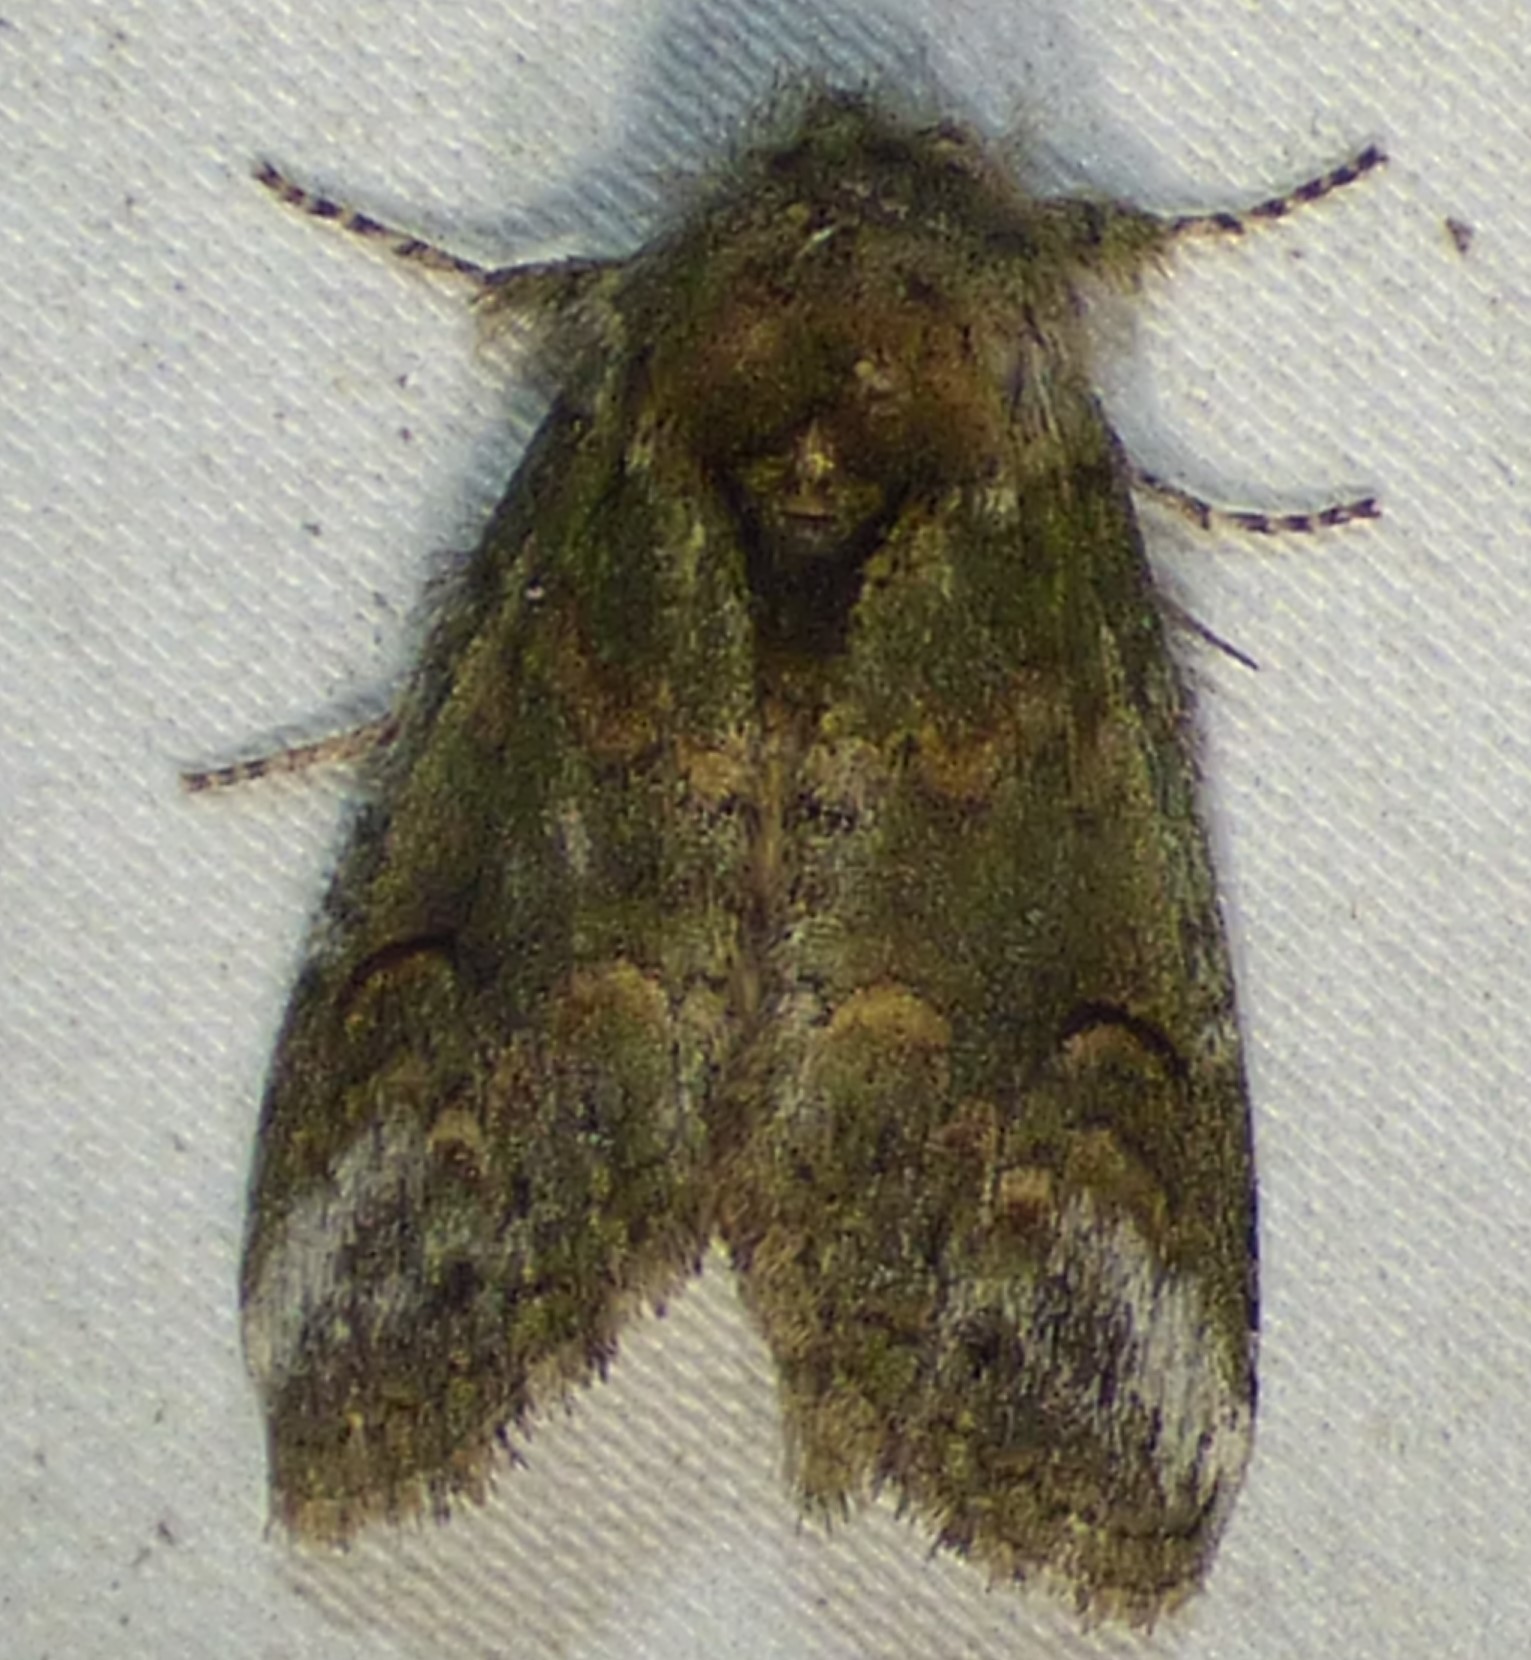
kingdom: Animalia
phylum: Arthropoda
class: Insecta
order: Lepidoptera
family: Notodontidae
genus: Disphragis
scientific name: Disphragis Cecrita biundata
